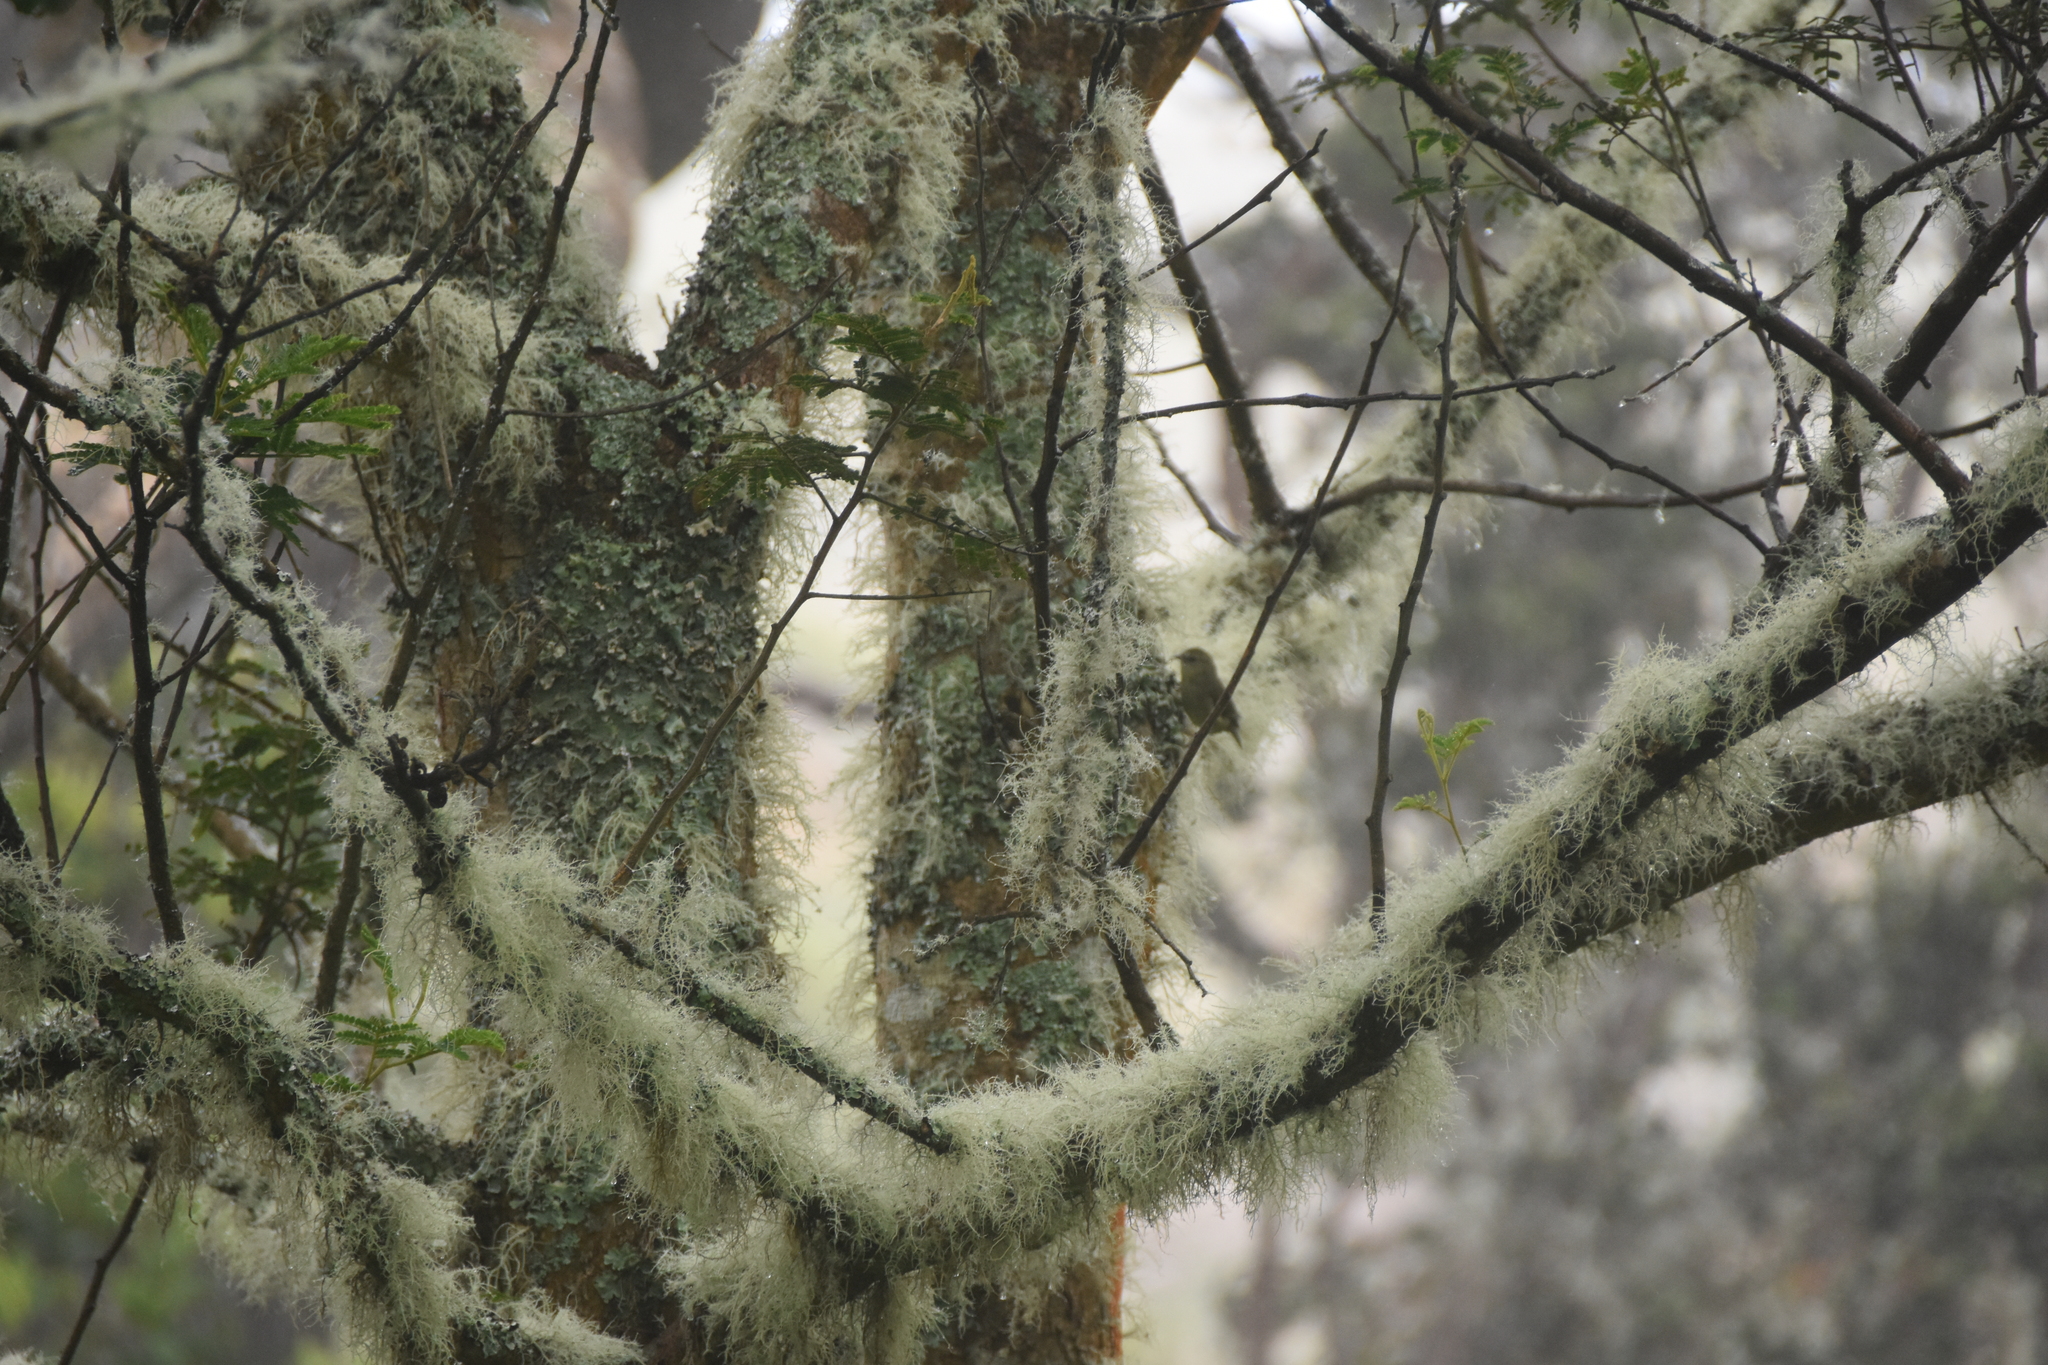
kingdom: Plantae
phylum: Tracheophyta
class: Magnoliopsida
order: Fabales
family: Fabaceae
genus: Acacia
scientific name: Acacia koa
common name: Gray koa
